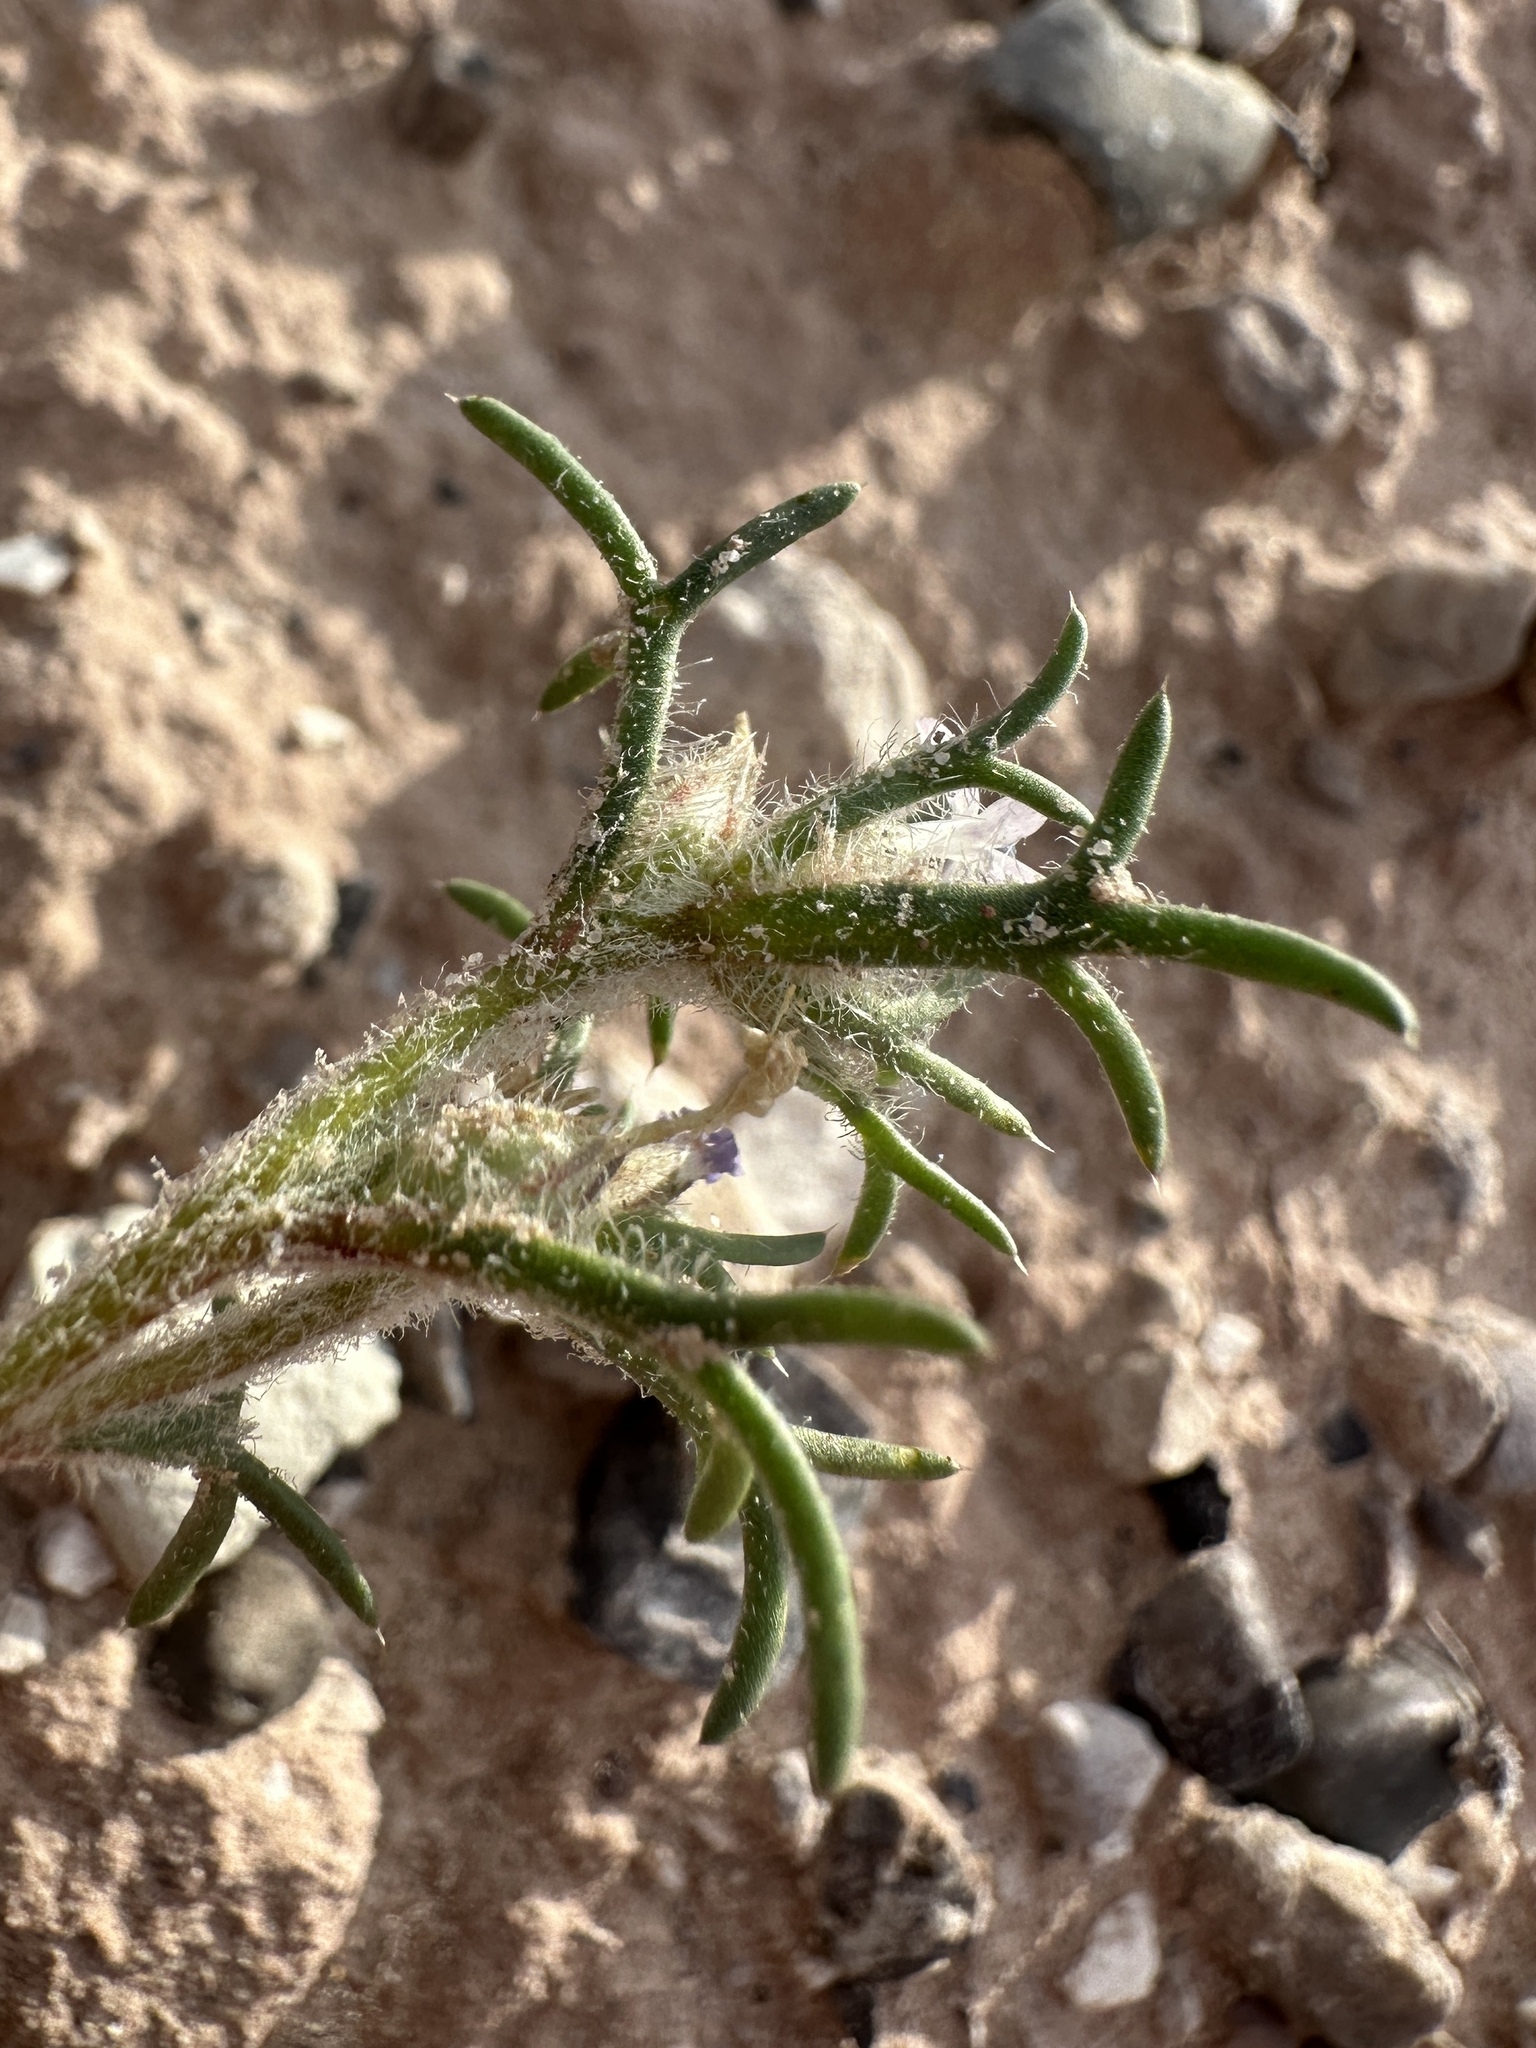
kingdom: Plantae
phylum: Tracheophyta
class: Magnoliopsida
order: Ericales
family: Polemoniaceae
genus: Ipomopsis
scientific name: Ipomopsis pumila
